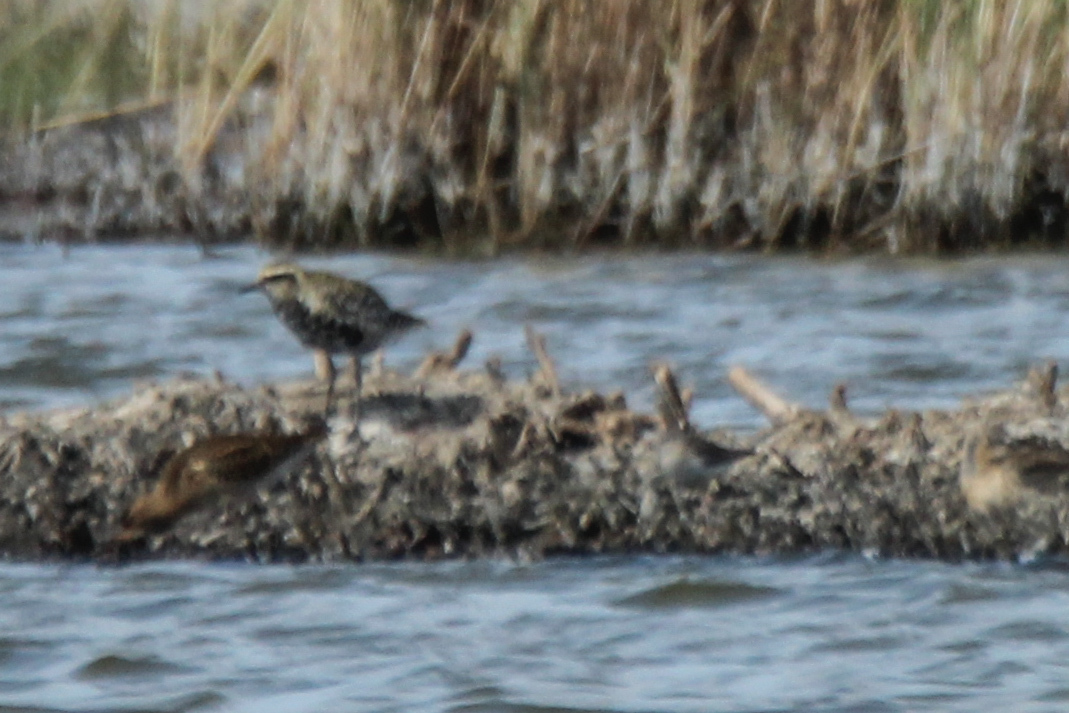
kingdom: Animalia
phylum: Chordata
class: Aves
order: Charadriiformes
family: Charadriidae
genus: Pluvialis
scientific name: Pluvialis fulva
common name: Pacific golden plover
